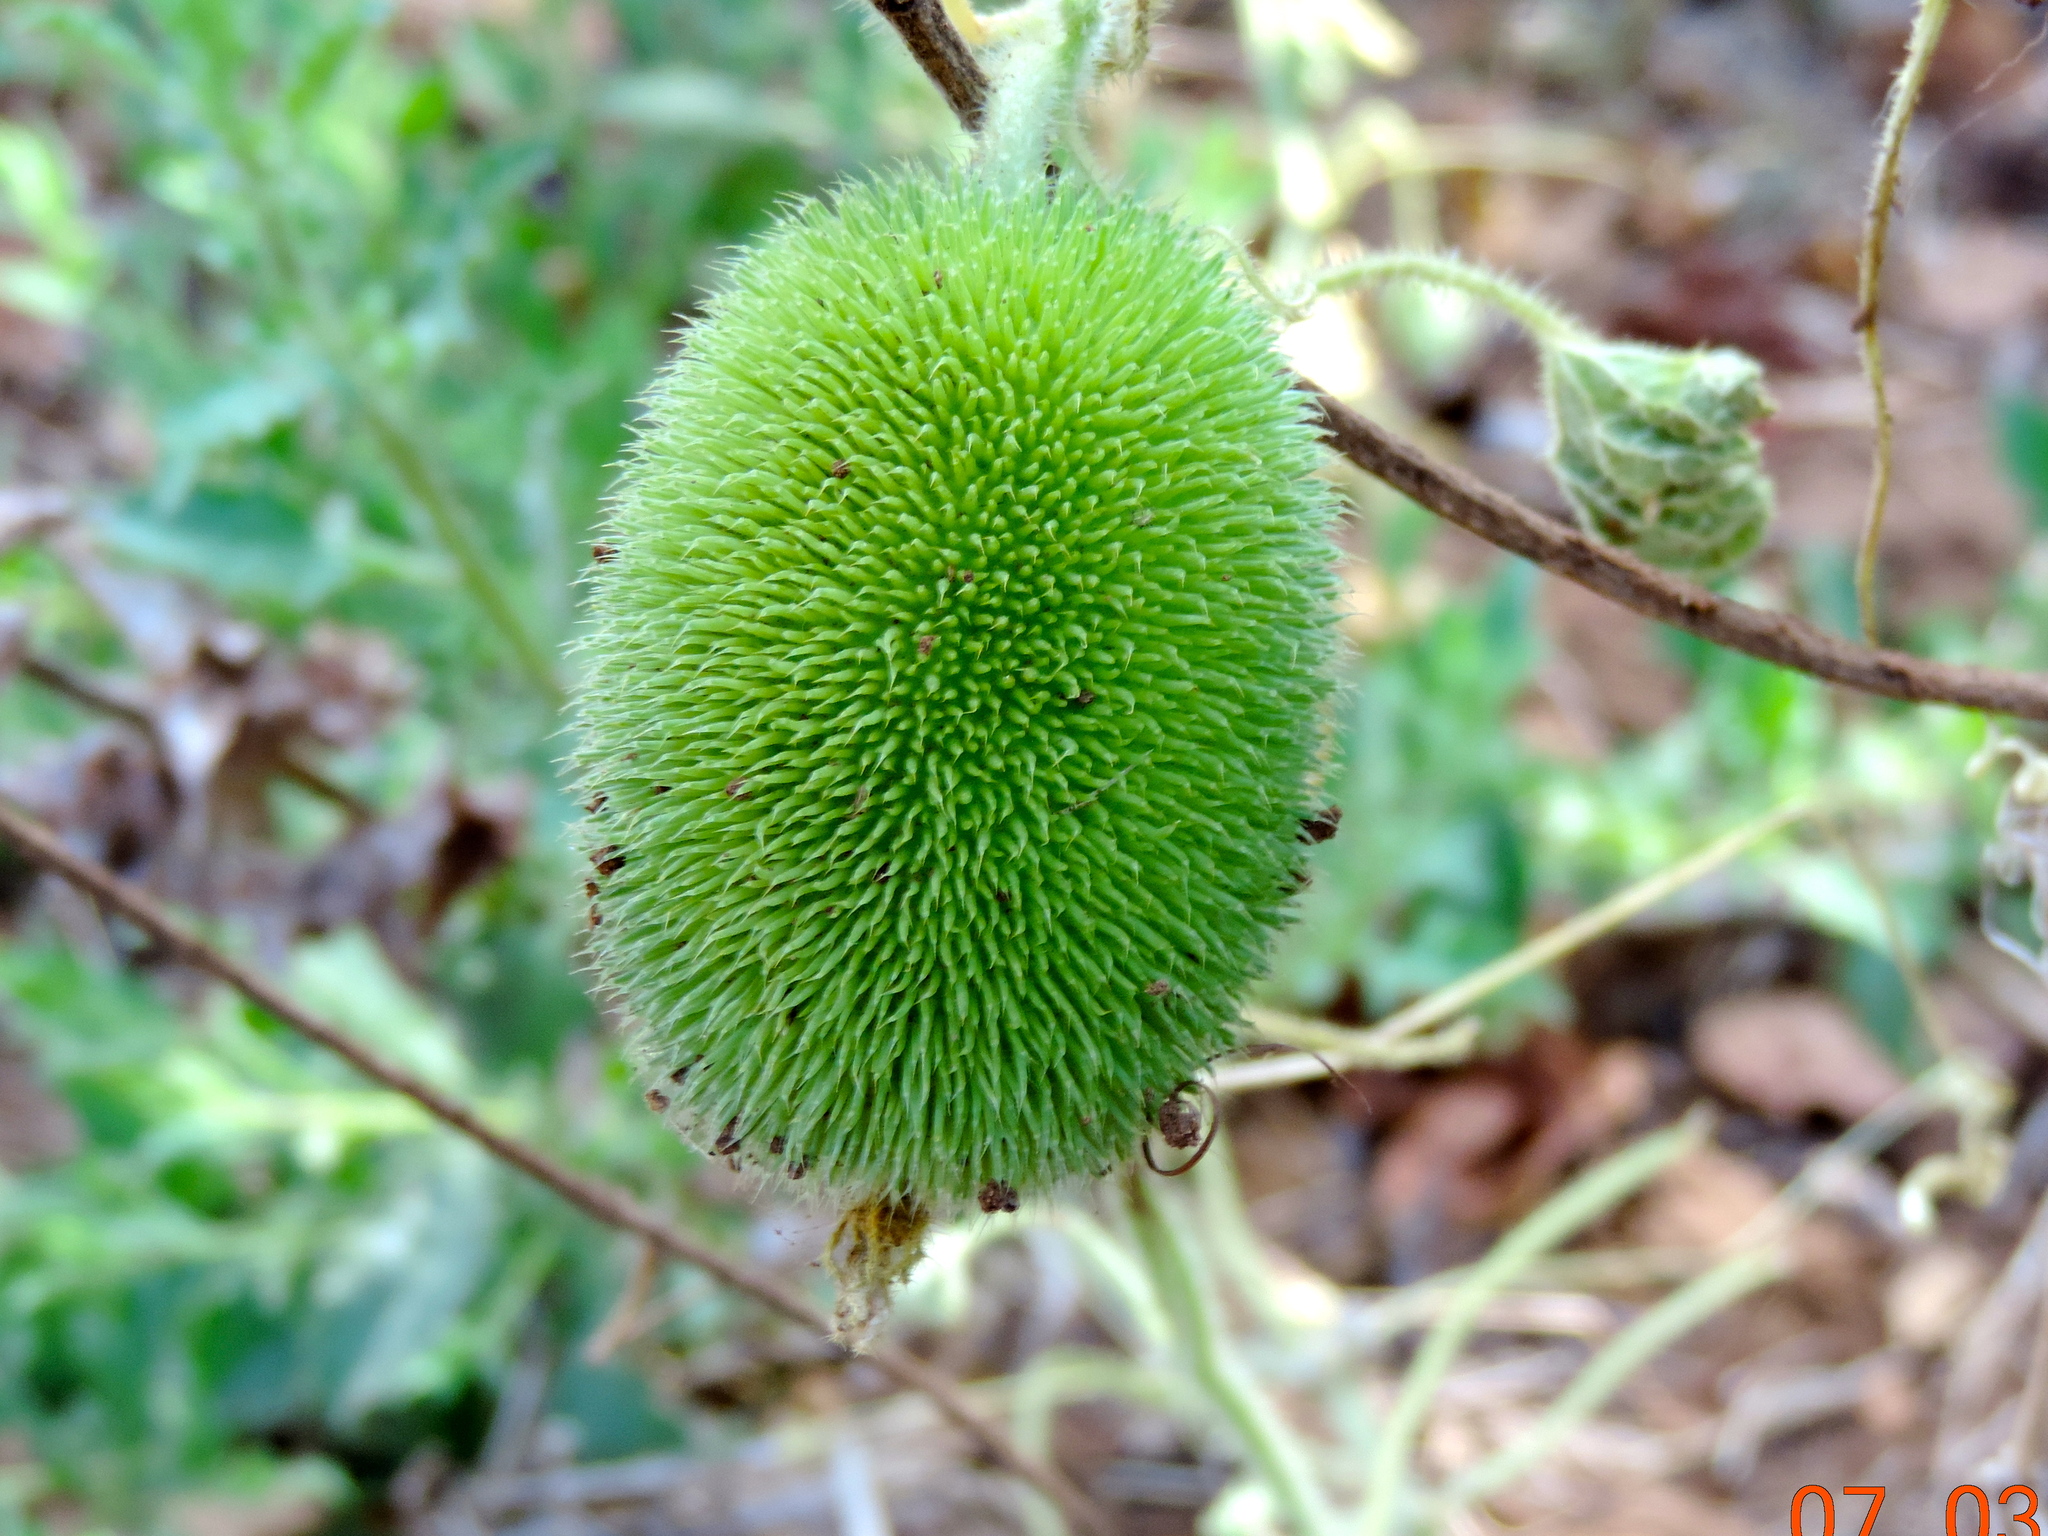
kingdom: Plantae
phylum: Tracheophyta
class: Magnoliopsida
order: Cucurbitales
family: Cucurbitaceae
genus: Cucumis
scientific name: Cucumis dipsaceus
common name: Hedgehog gourd
